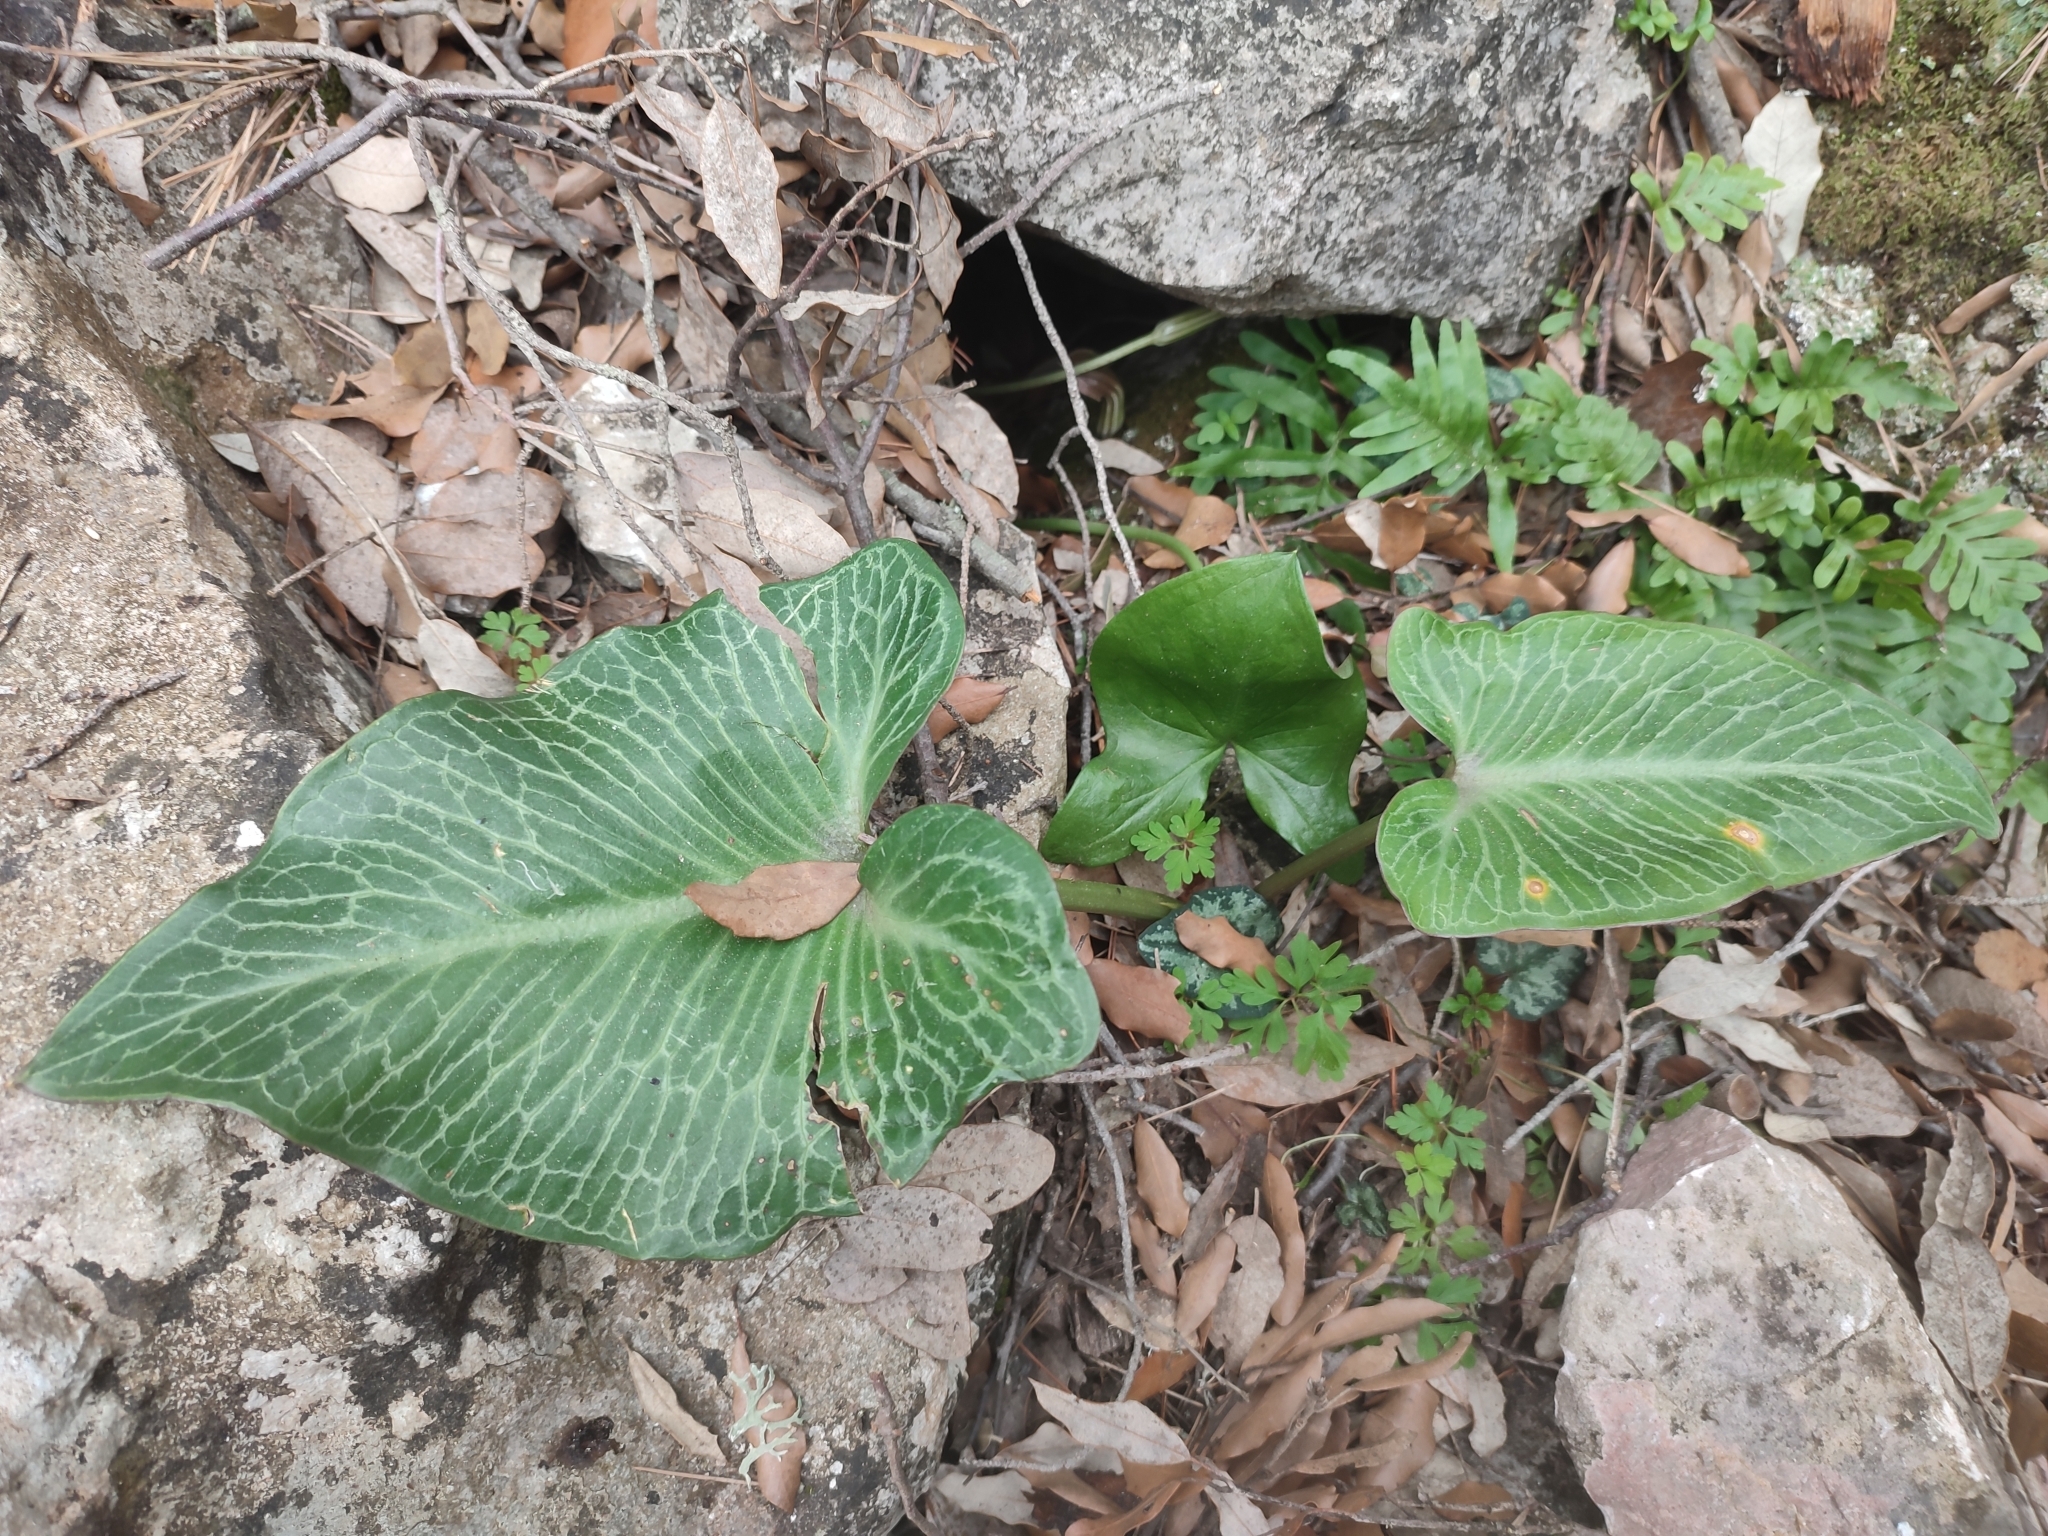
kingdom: Plantae
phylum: Tracheophyta
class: Liliopsida
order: Alismatales
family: Araceae
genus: Arum
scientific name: Arum pictum
